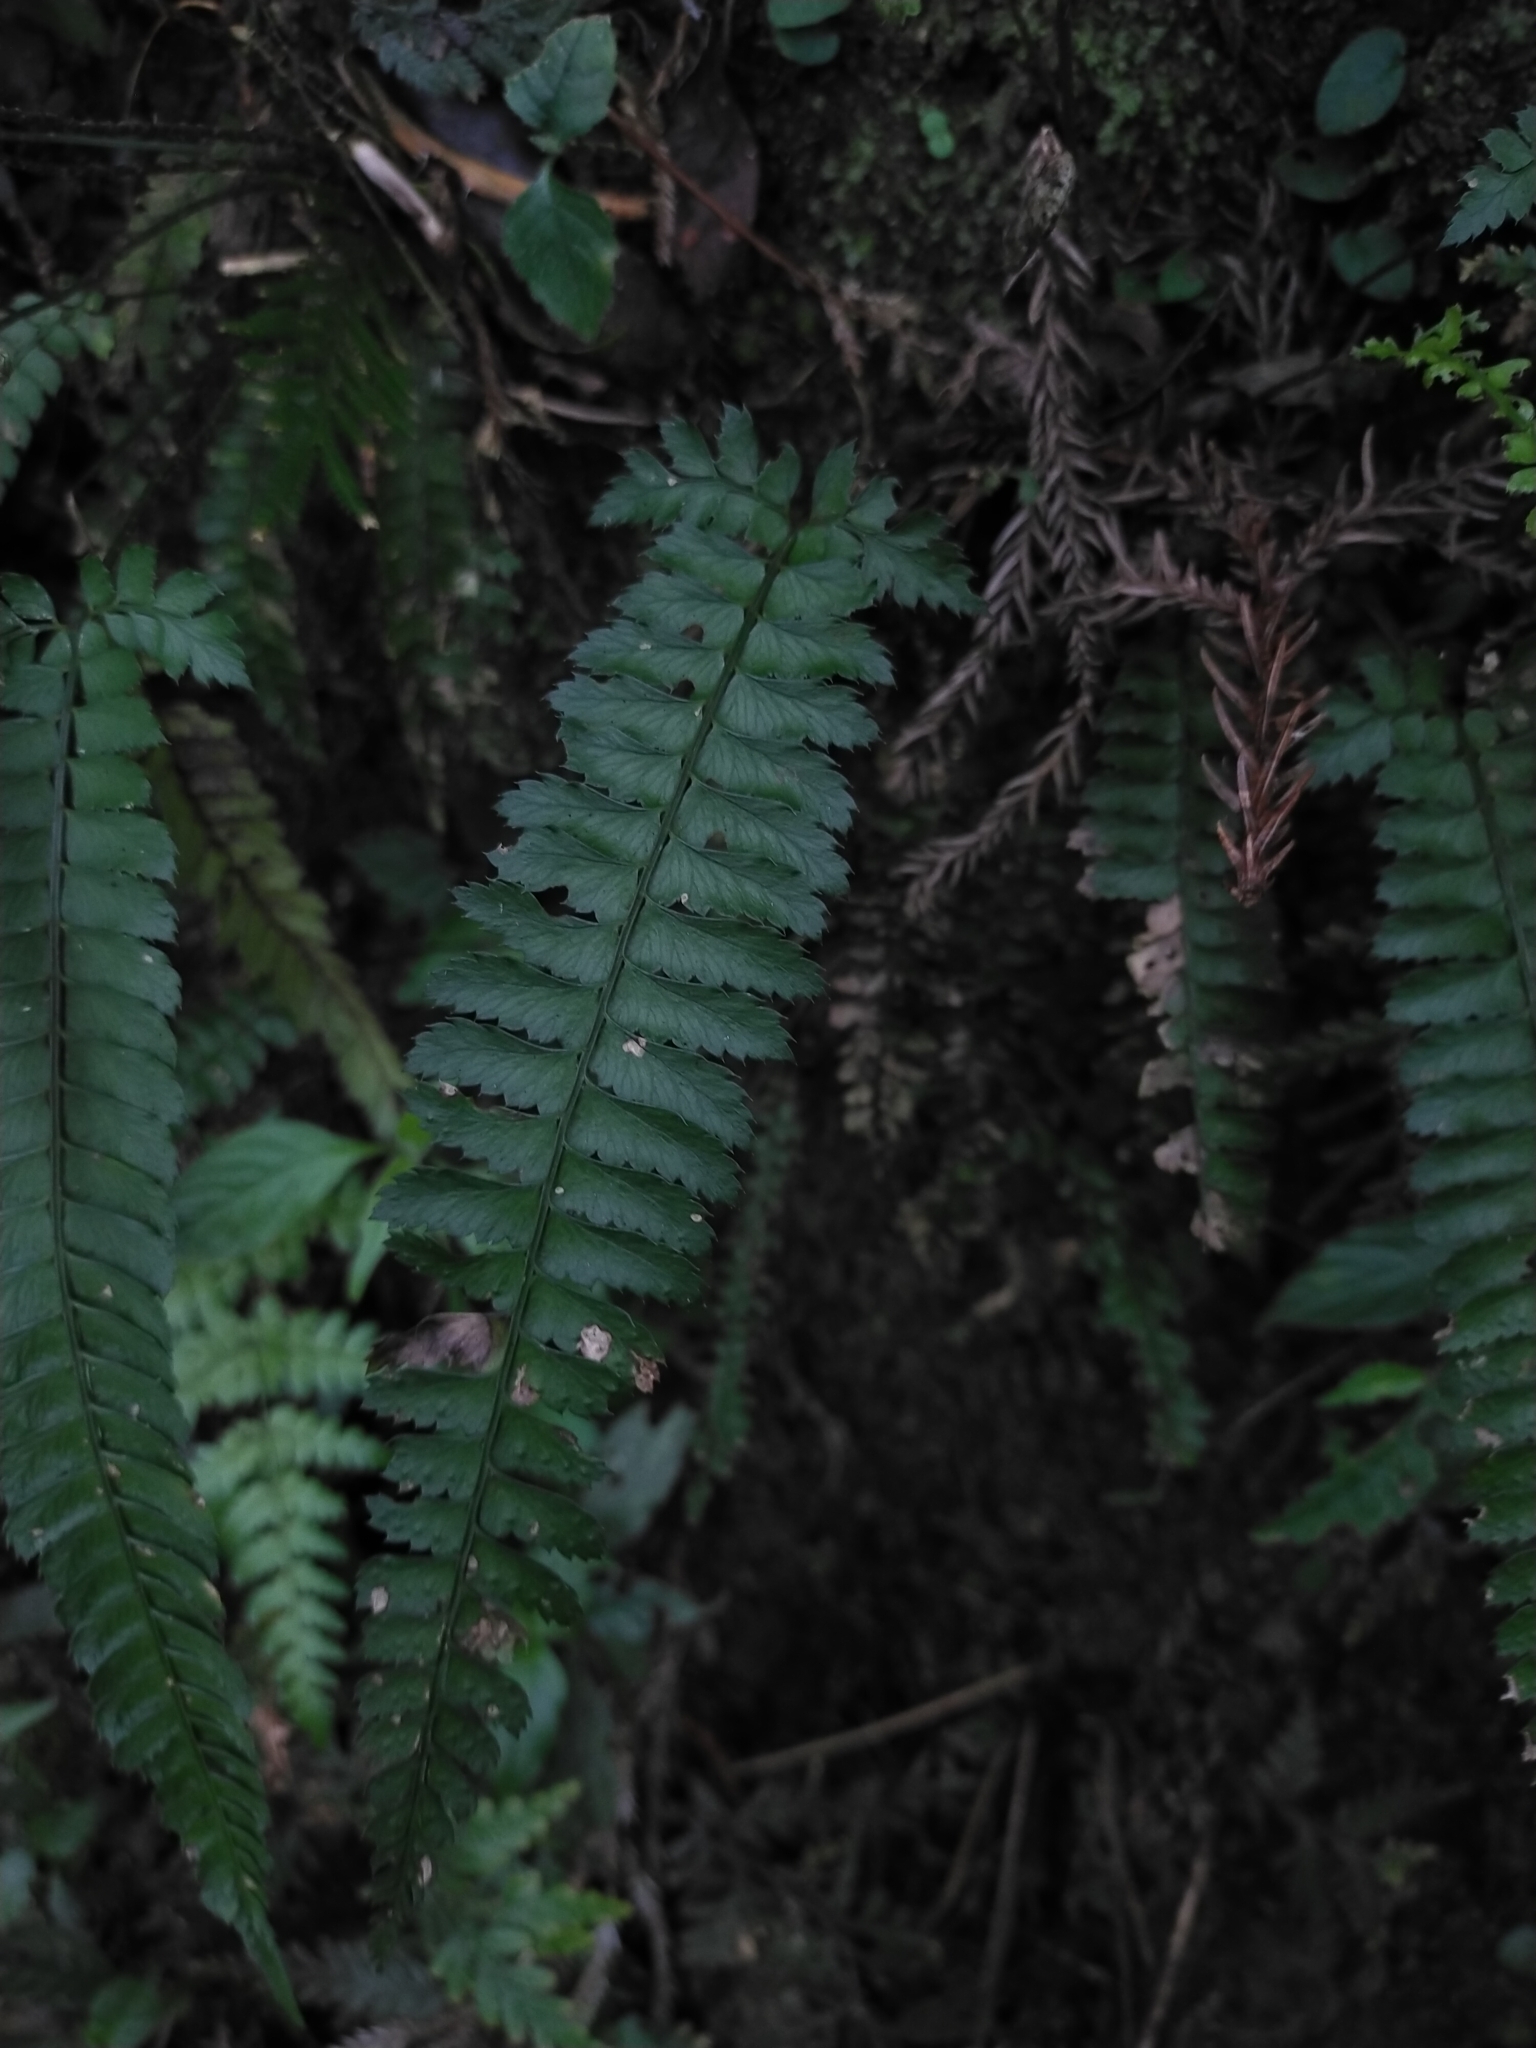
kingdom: Plantae
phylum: Tracheophyta
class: Polypodiopsida
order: Polypodiales
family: Dryopteridaceae
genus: Polystichum
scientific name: Polystichum hancockii
